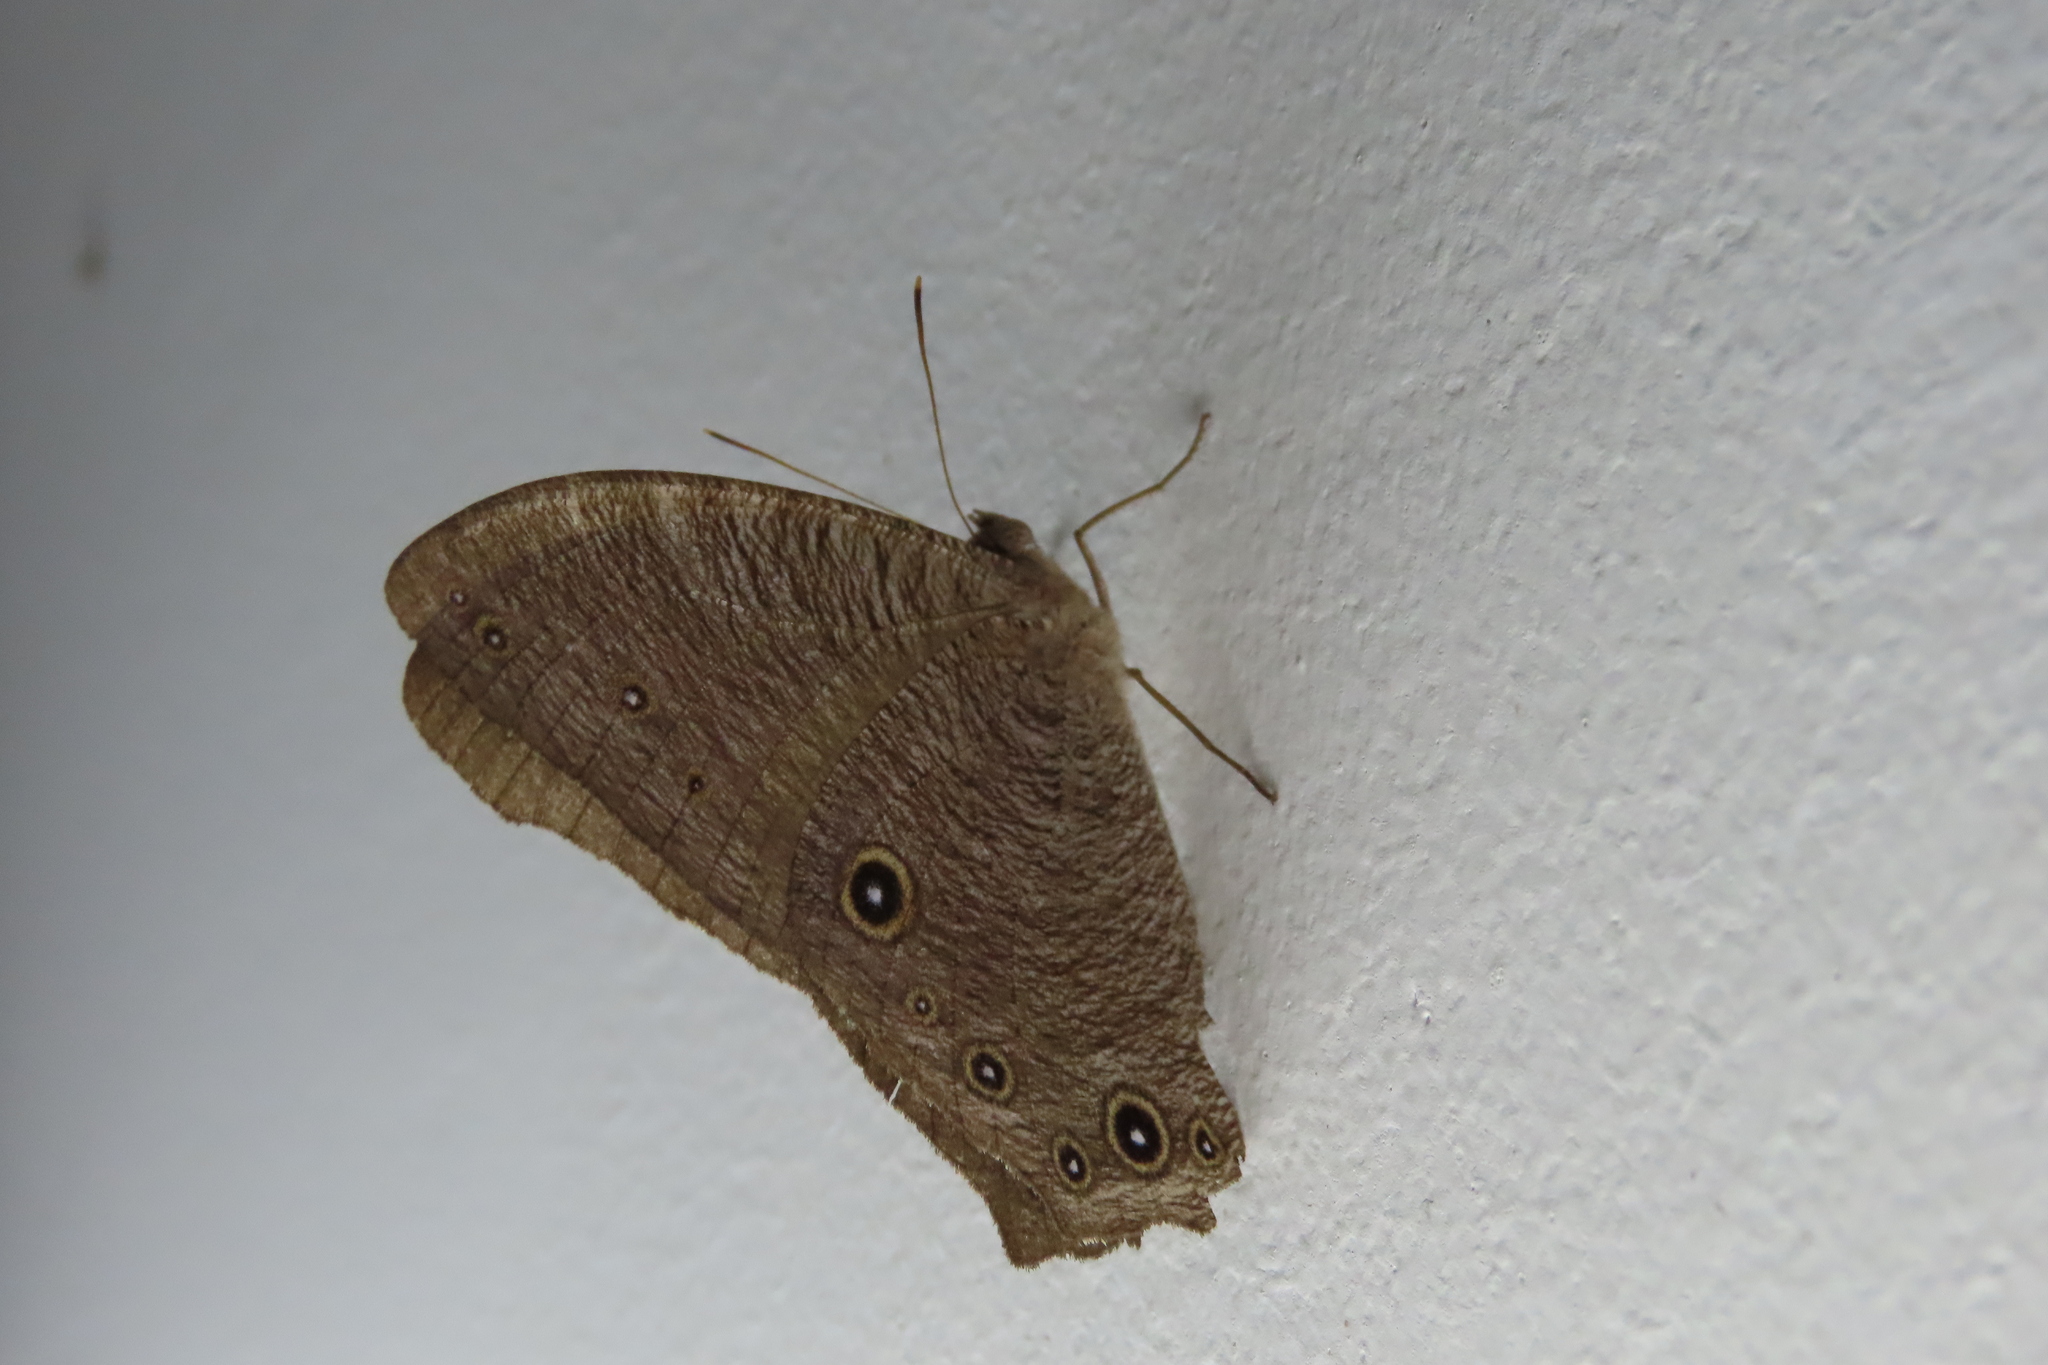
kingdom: Animalia
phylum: Arthropoda
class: Insecta
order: Lepidoptera
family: Nymphalidae
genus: Melanitis
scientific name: Melanitis leda
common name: Twilight brown
